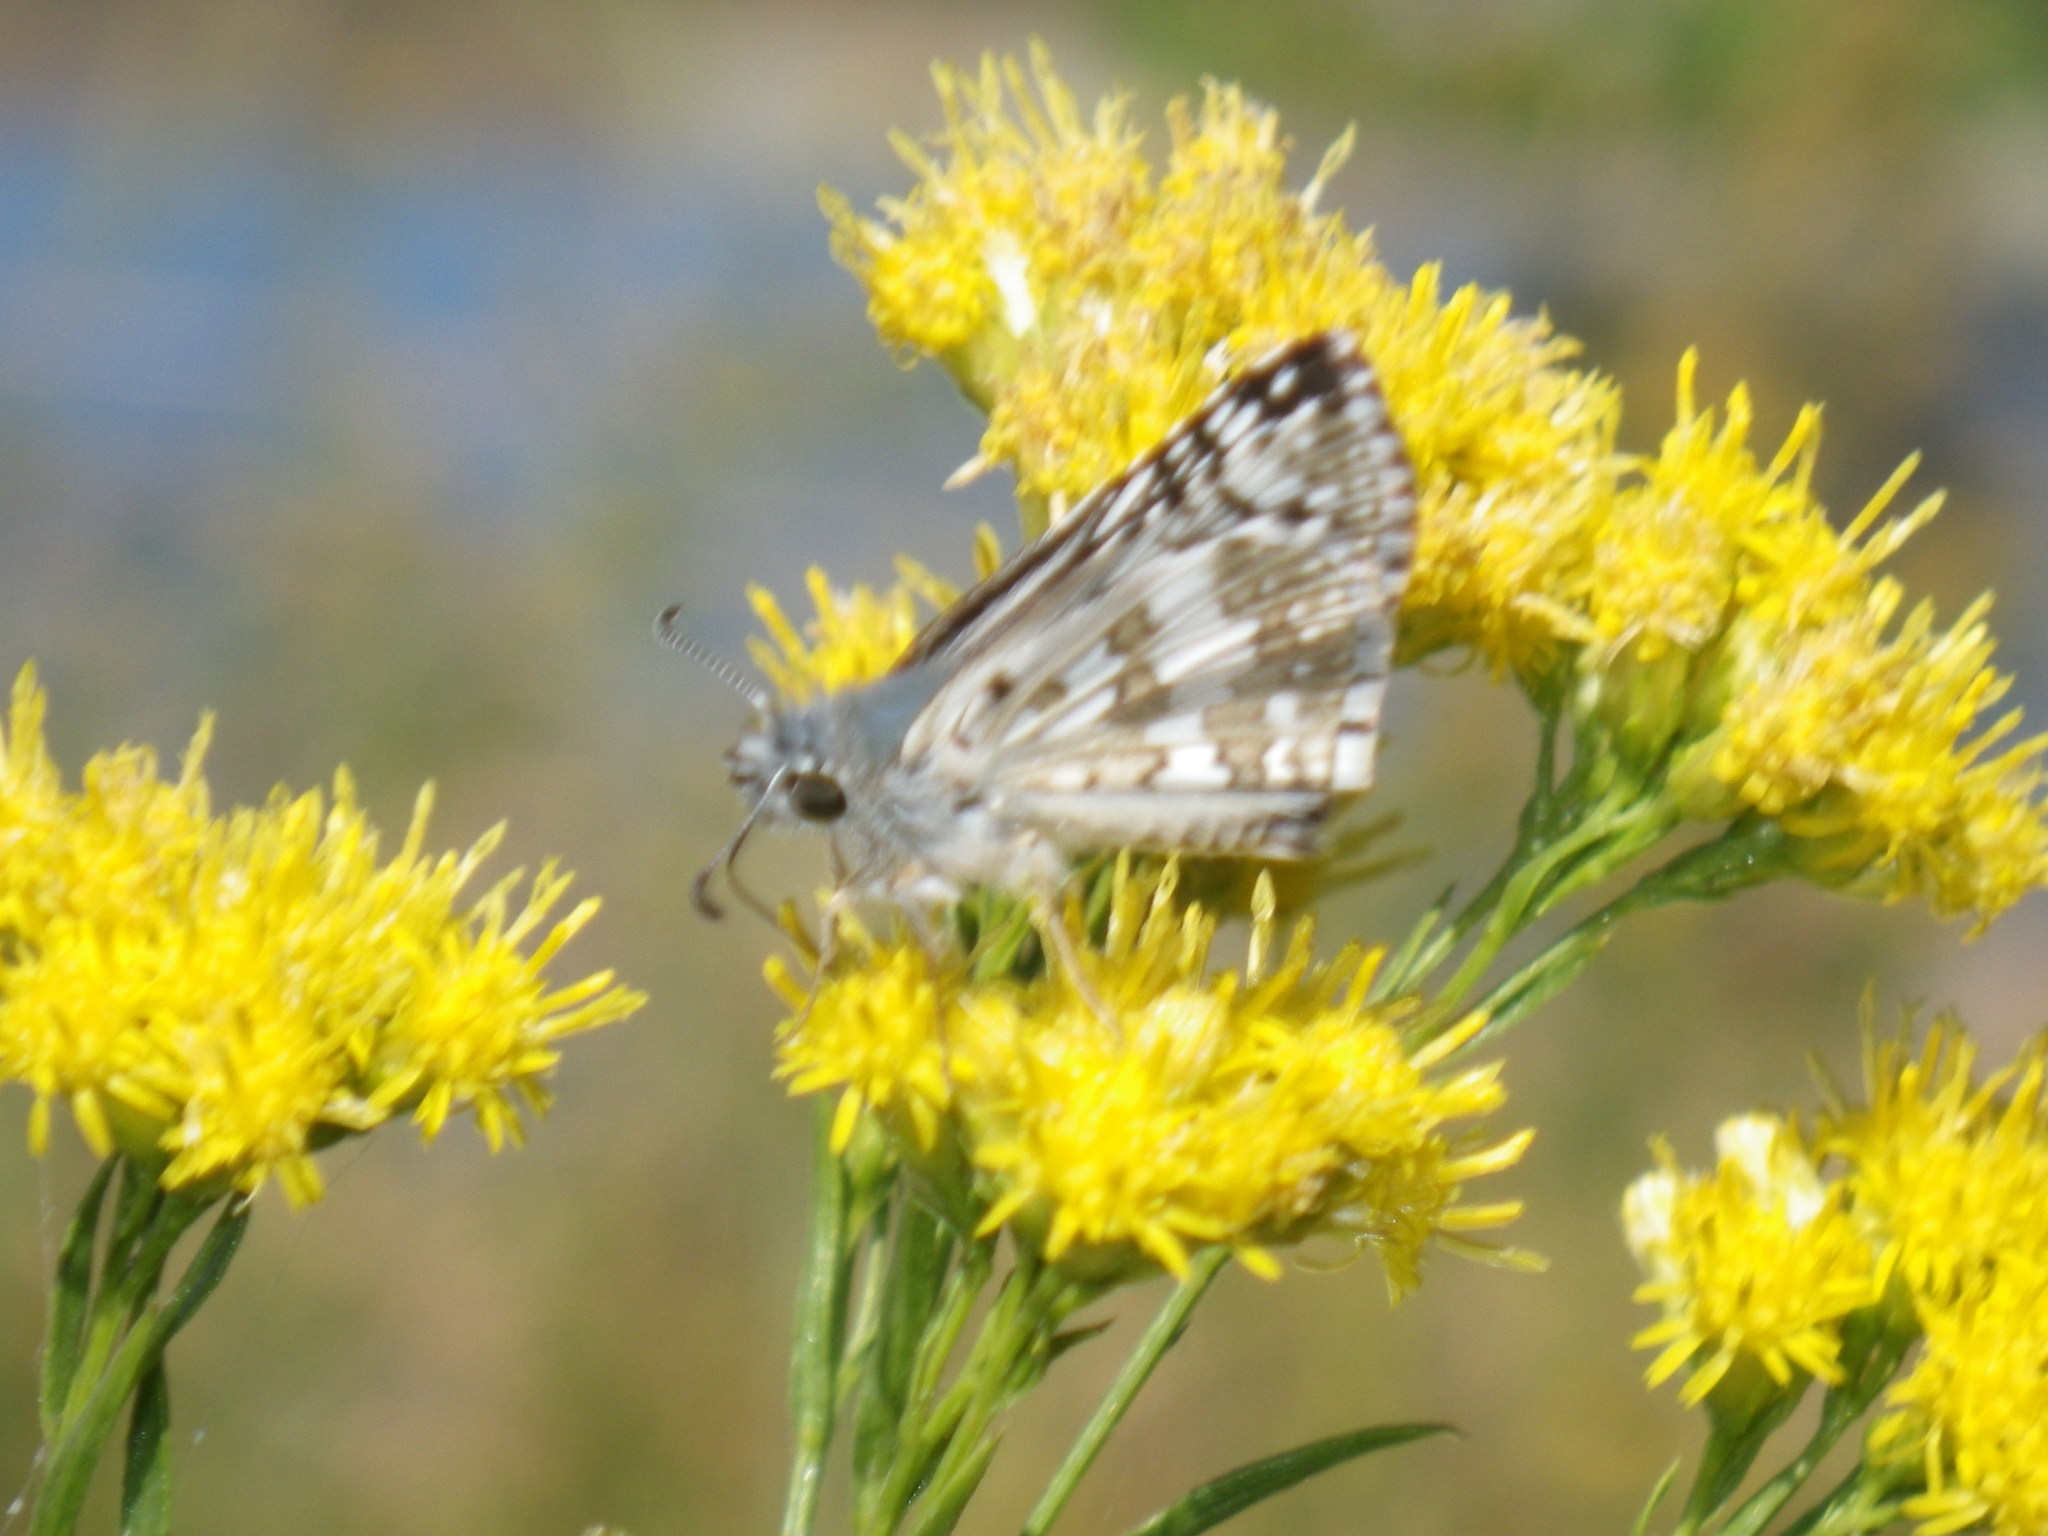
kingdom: Animalia
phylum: Arthropoda
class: Insecta
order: Lepidoptera
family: Hesperiidae
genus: Burnsius
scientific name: Burnsius communis
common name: Common checkered-skipper
